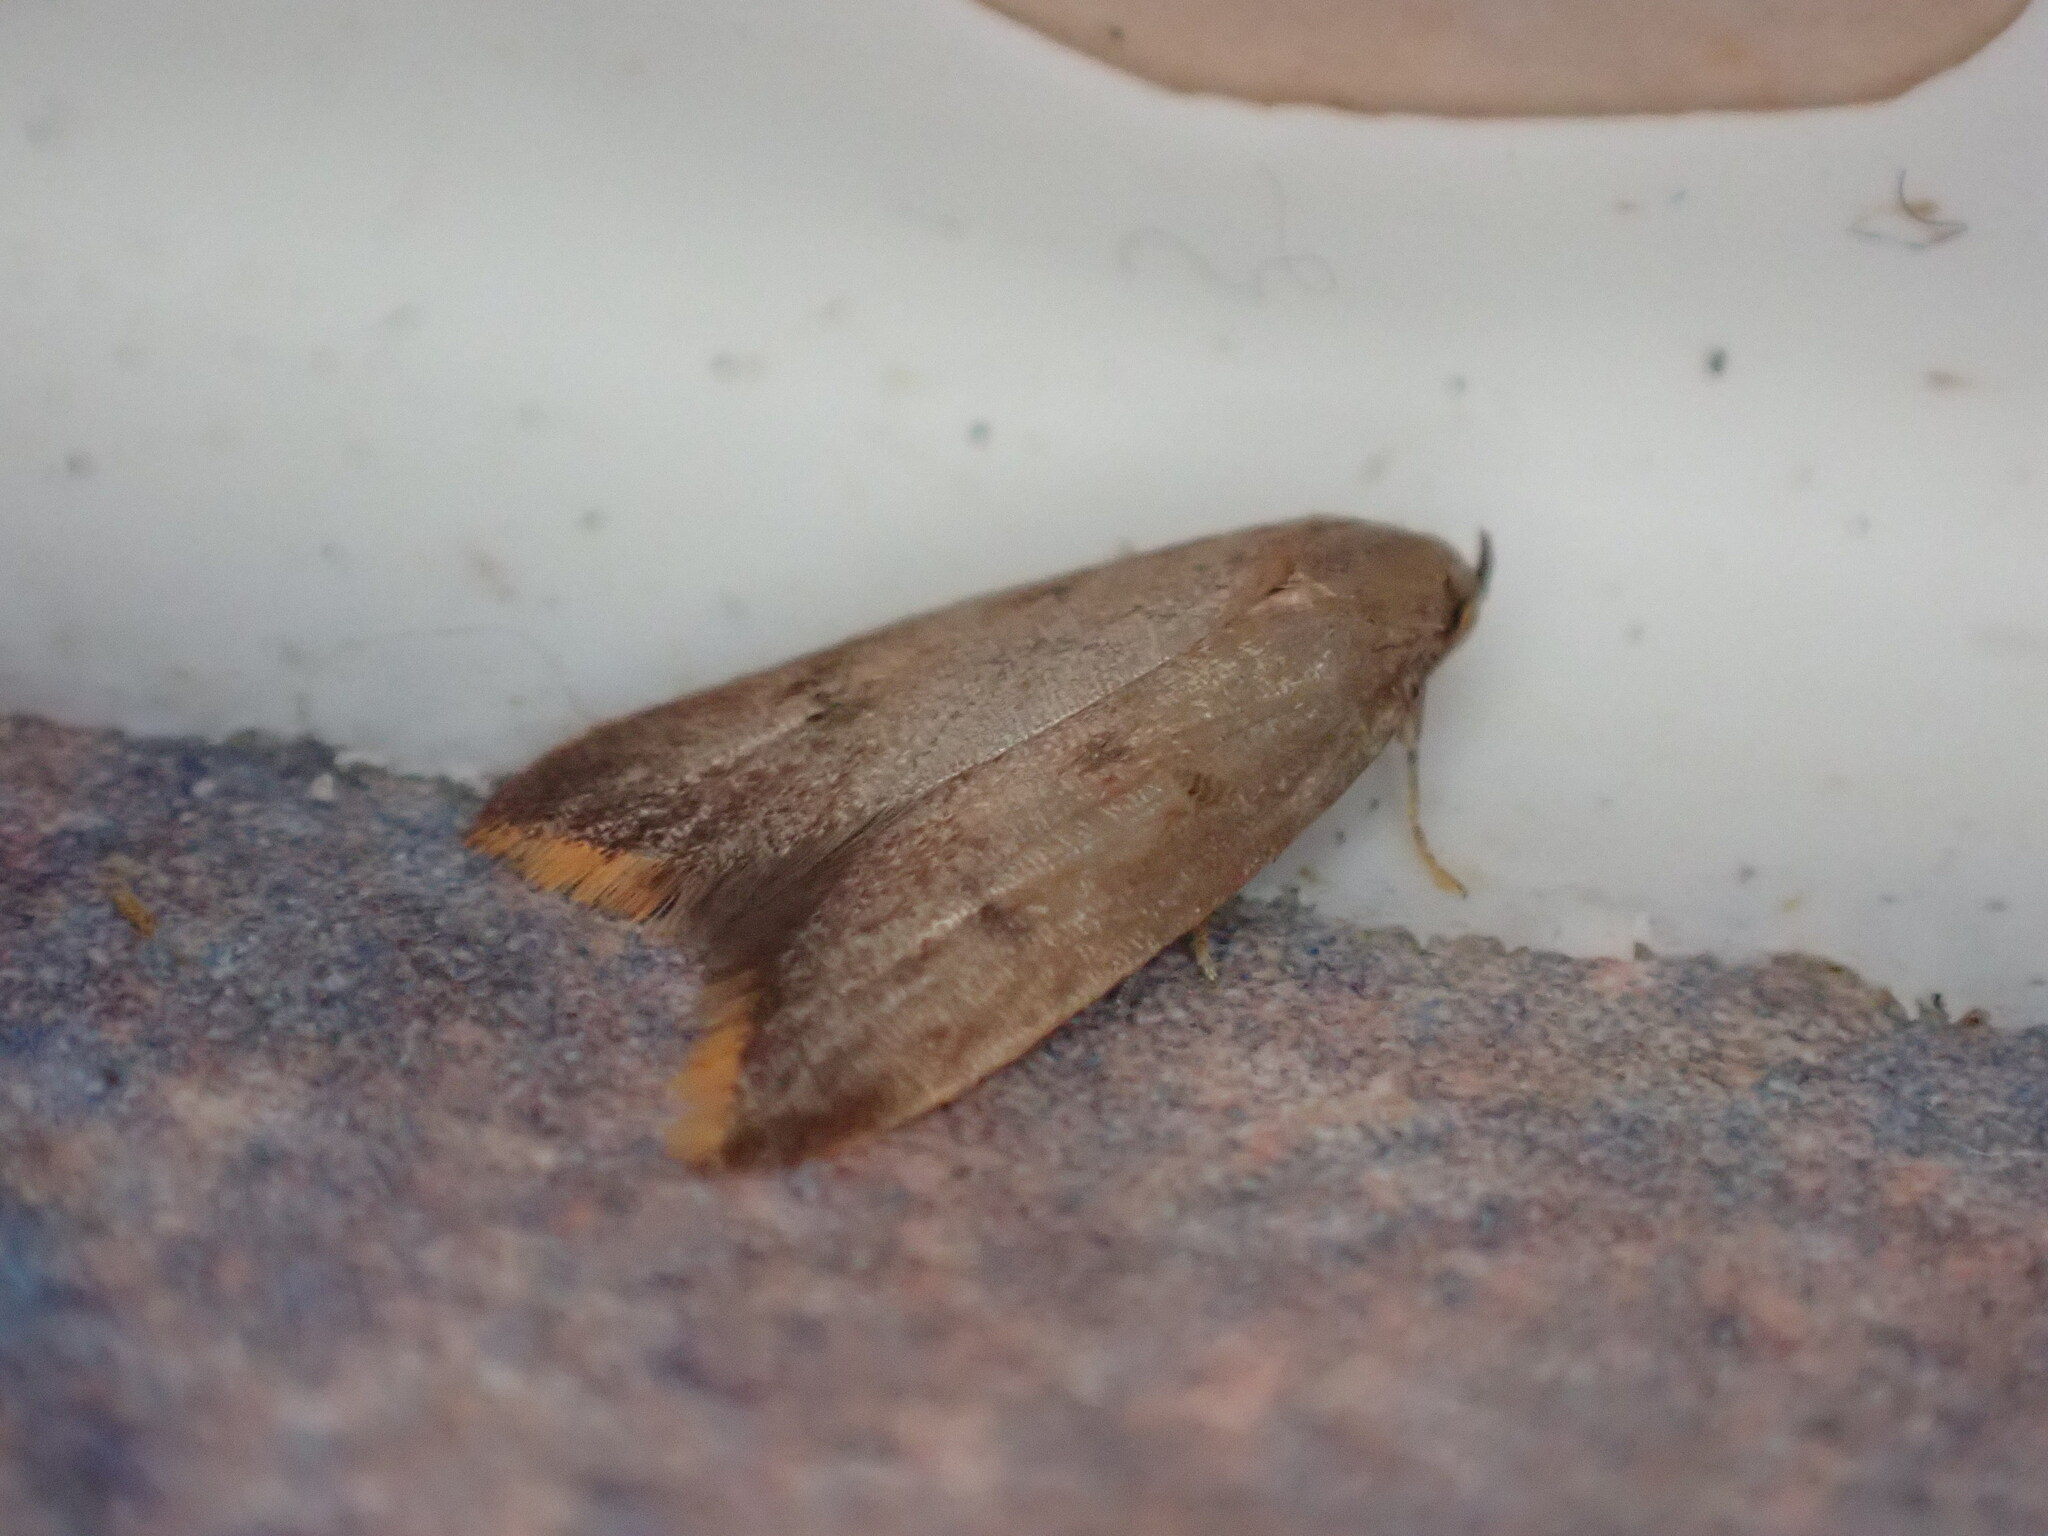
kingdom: Animalia
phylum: Arthropoda
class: Insecta
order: Lepidoptera
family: Oecophoridae
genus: Tachystola
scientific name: Tachystola acroxantha
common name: Ruddy streak
